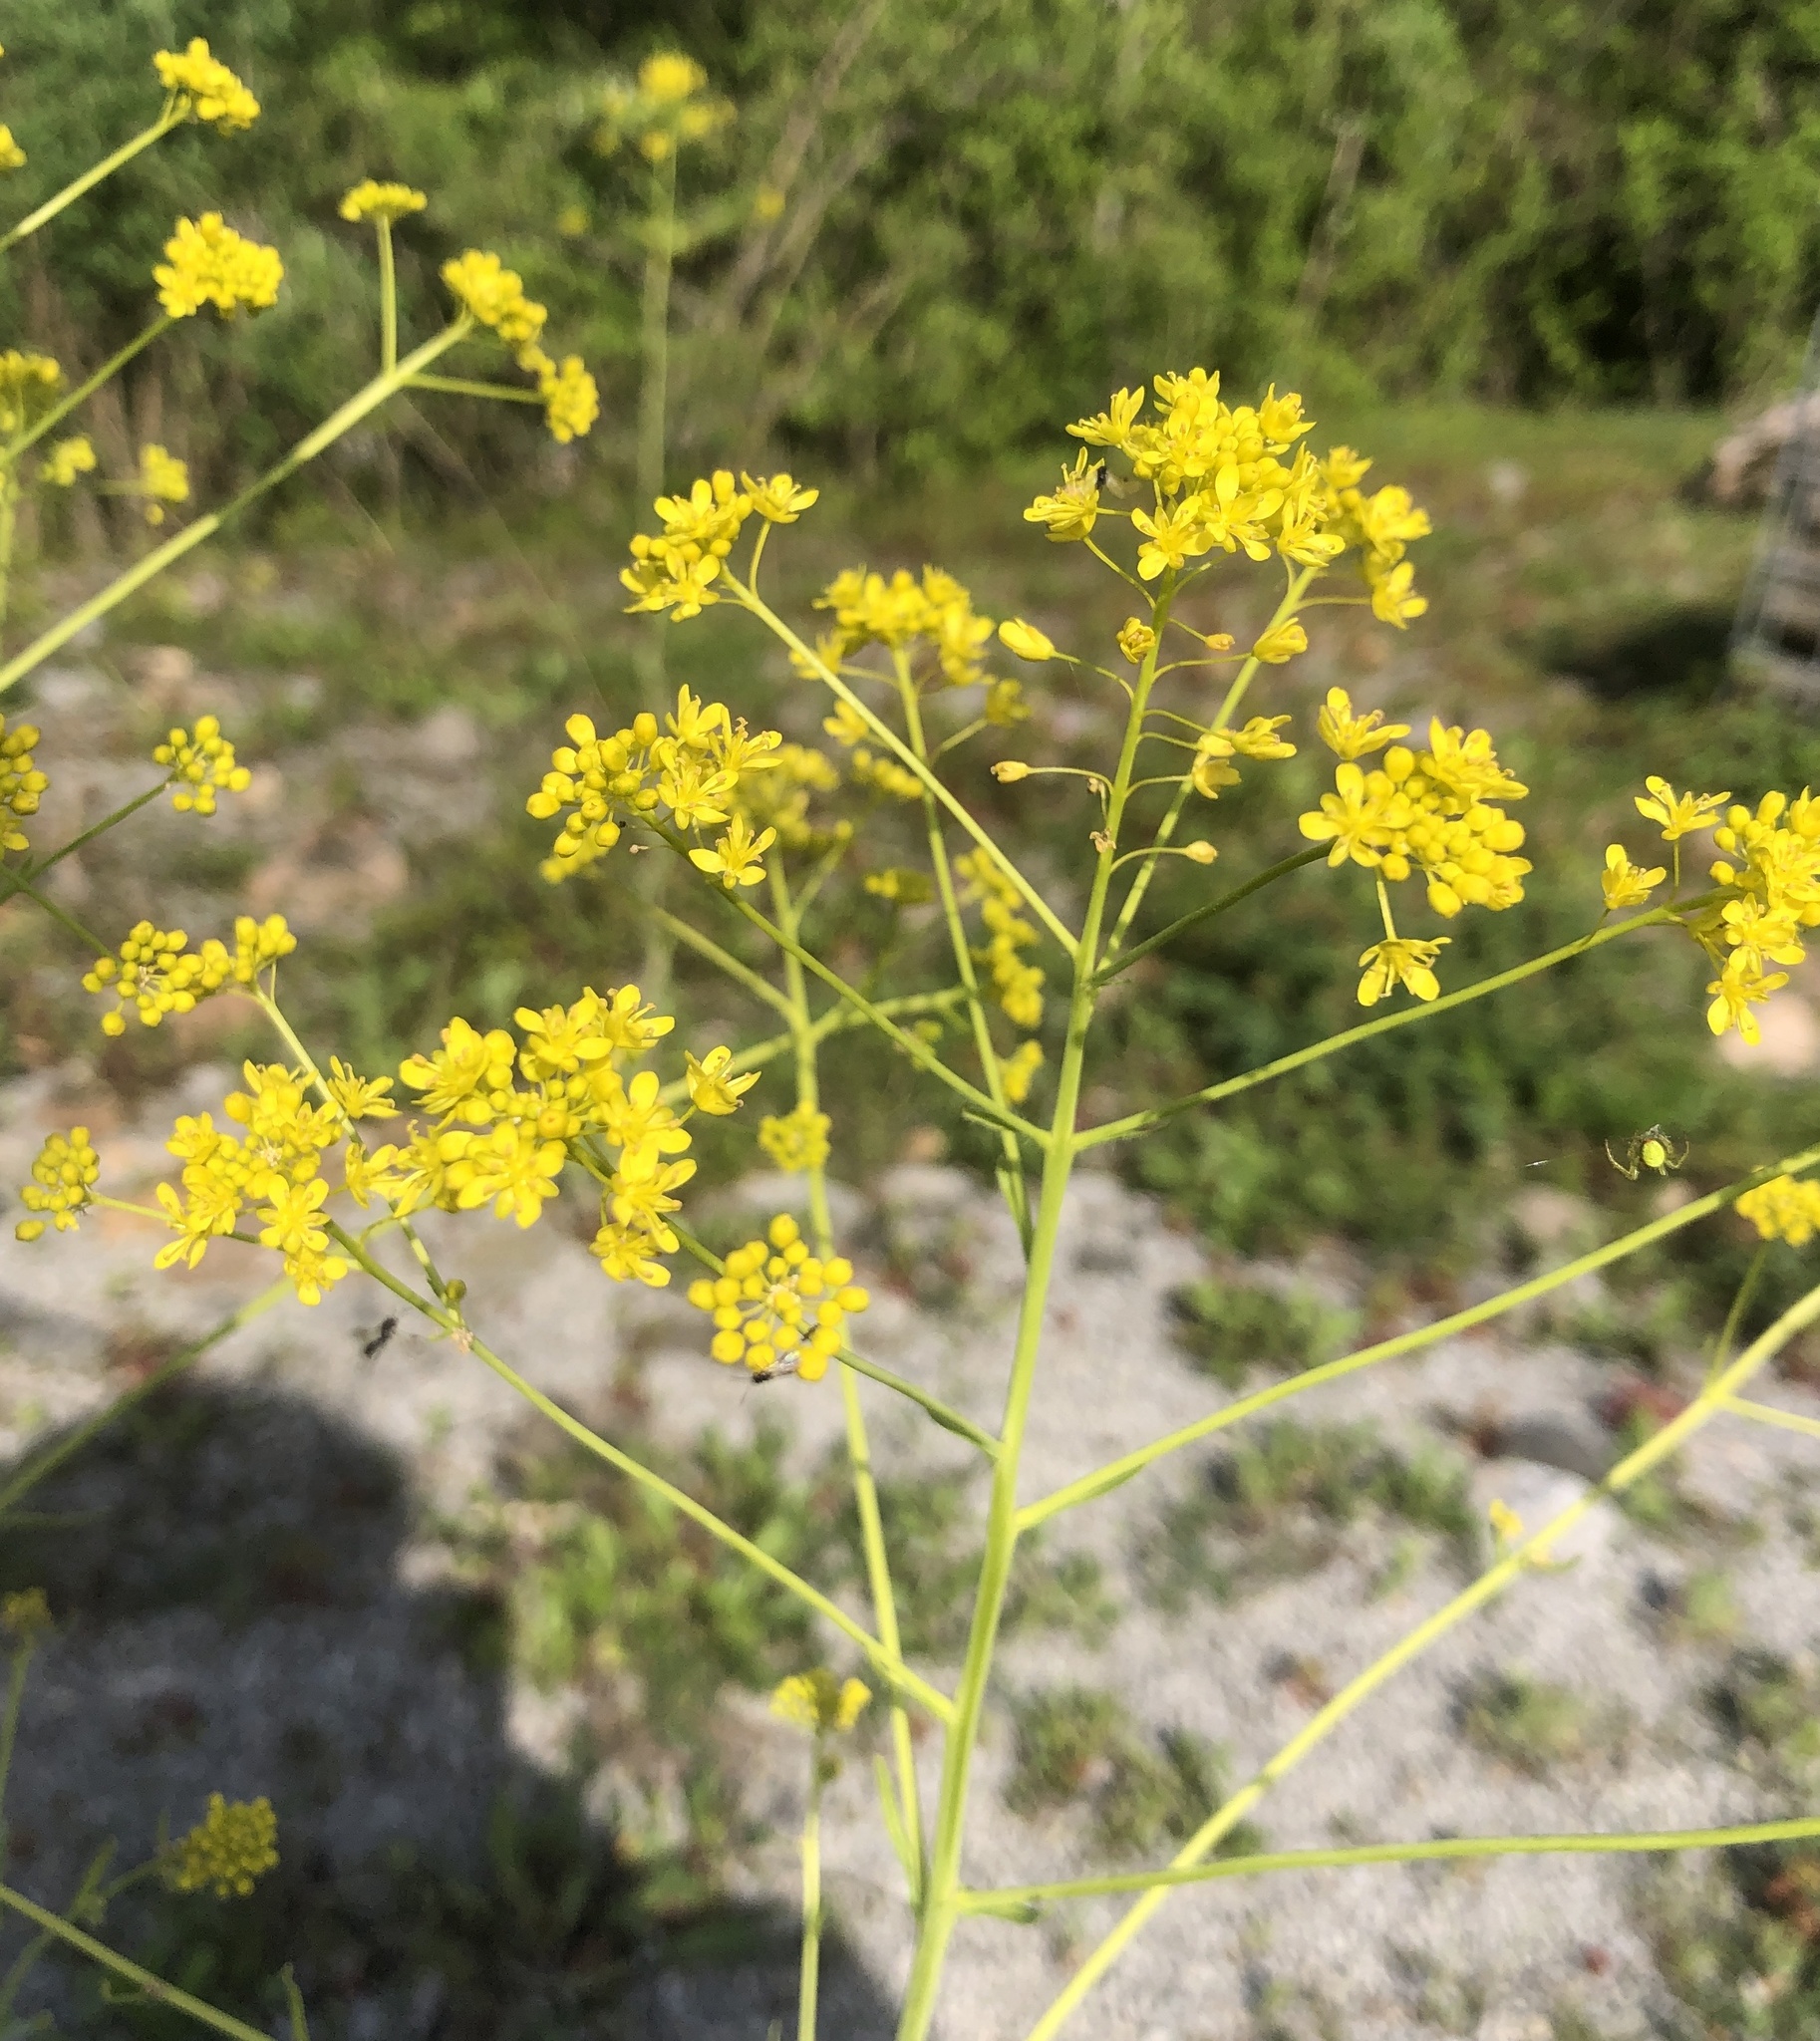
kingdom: Plantae
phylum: Tracheophyta
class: Magnoliopsida
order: Brassicales
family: Brassicaceae
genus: Isatis
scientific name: Isatis tinctoria
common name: Woad
